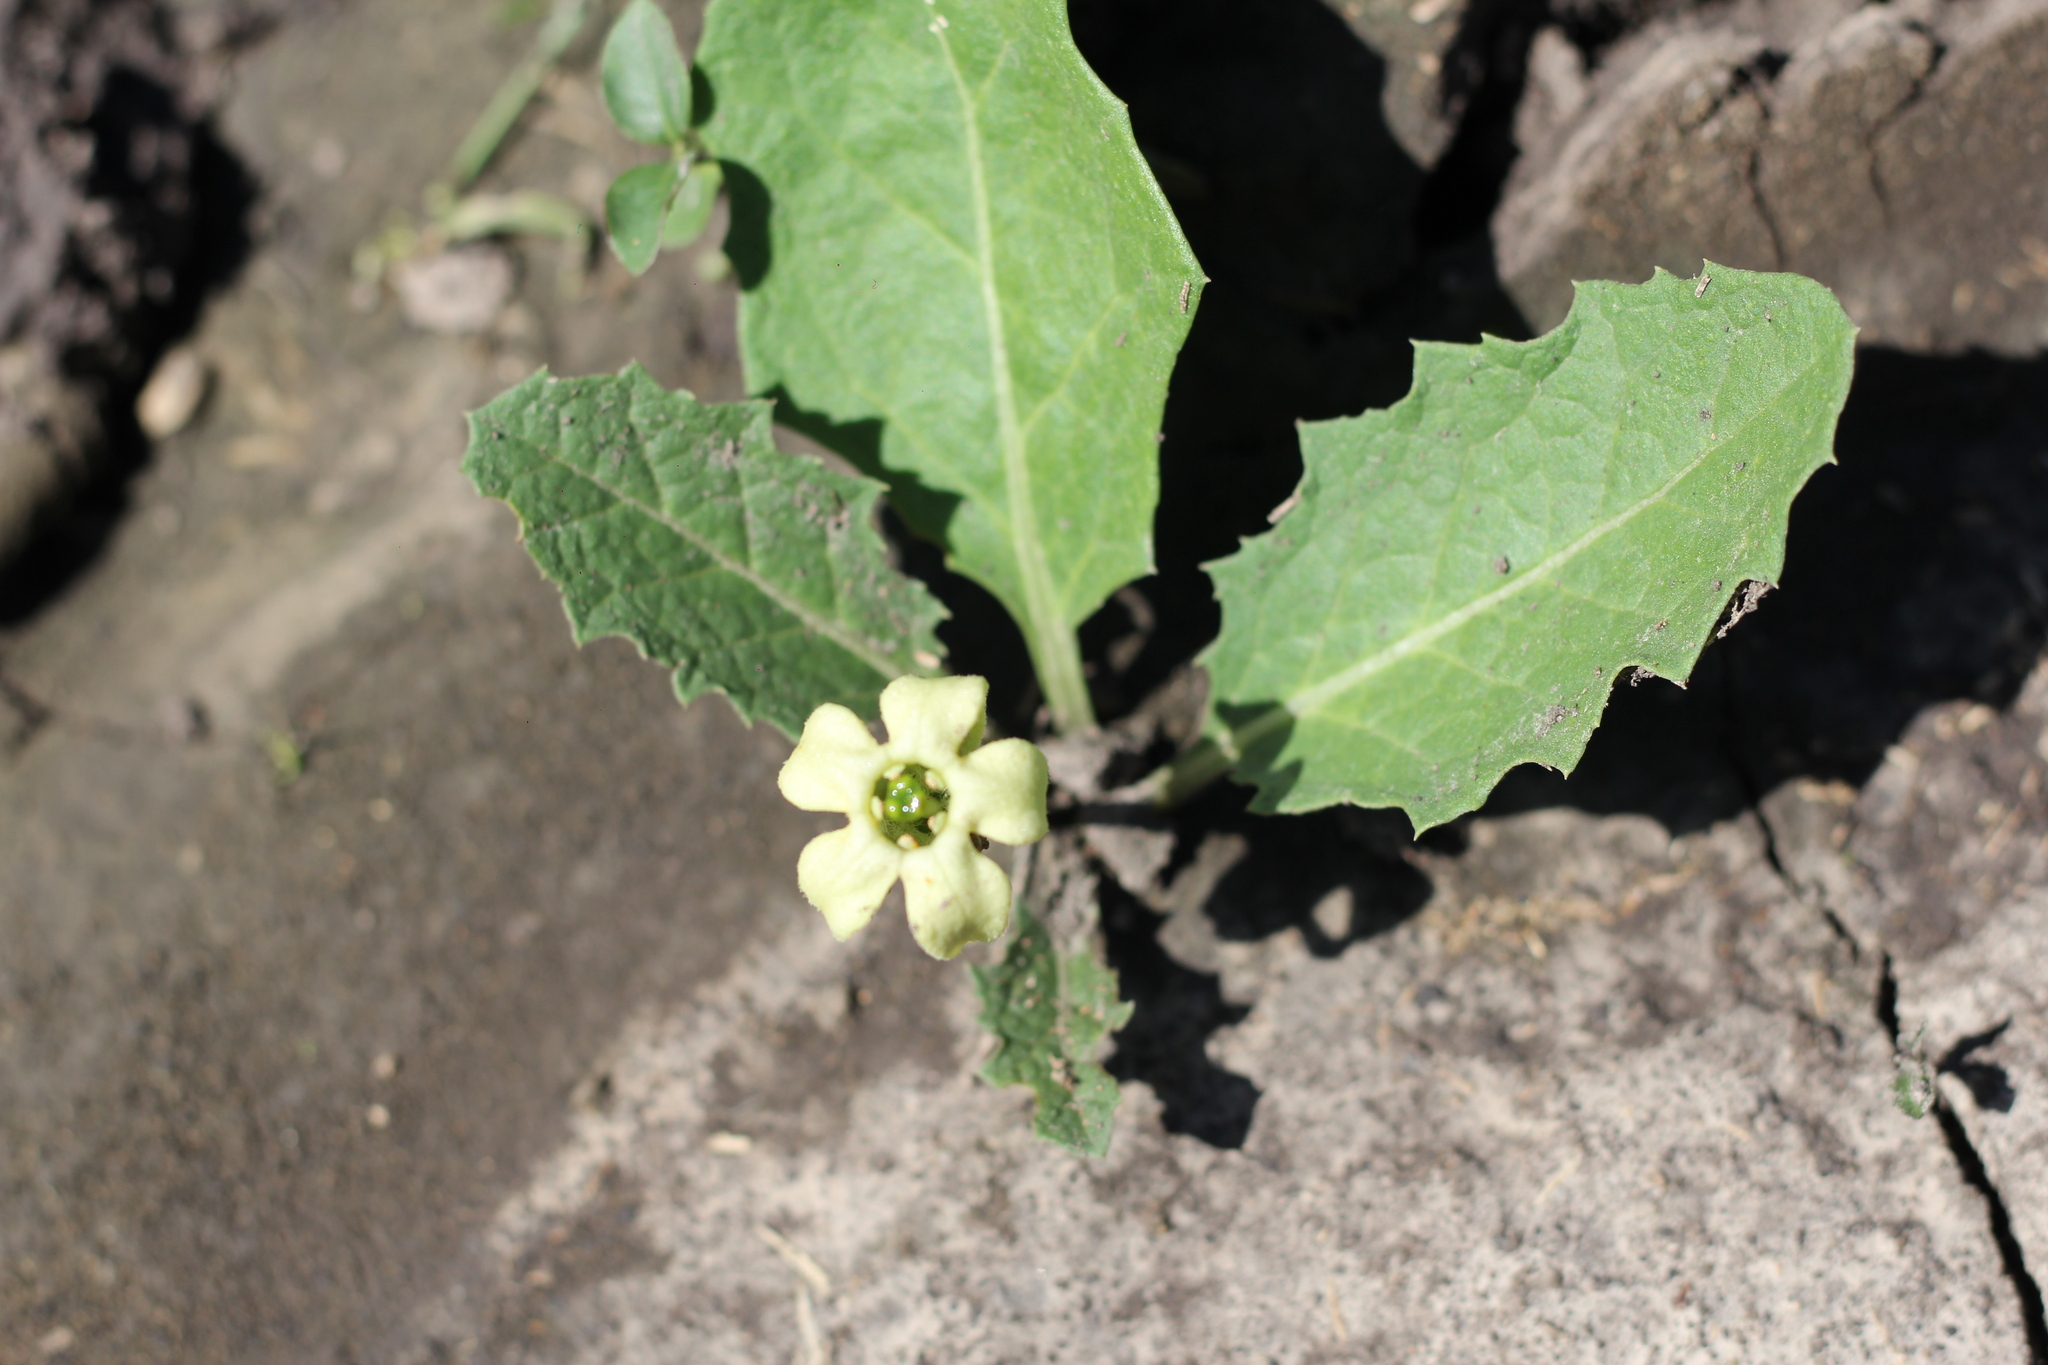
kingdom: Plantae
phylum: Tracheophyta
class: Magnoliopsida
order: Solanales
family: Solanaceae
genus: Jaborosa
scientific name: Jaborosa runcinata
